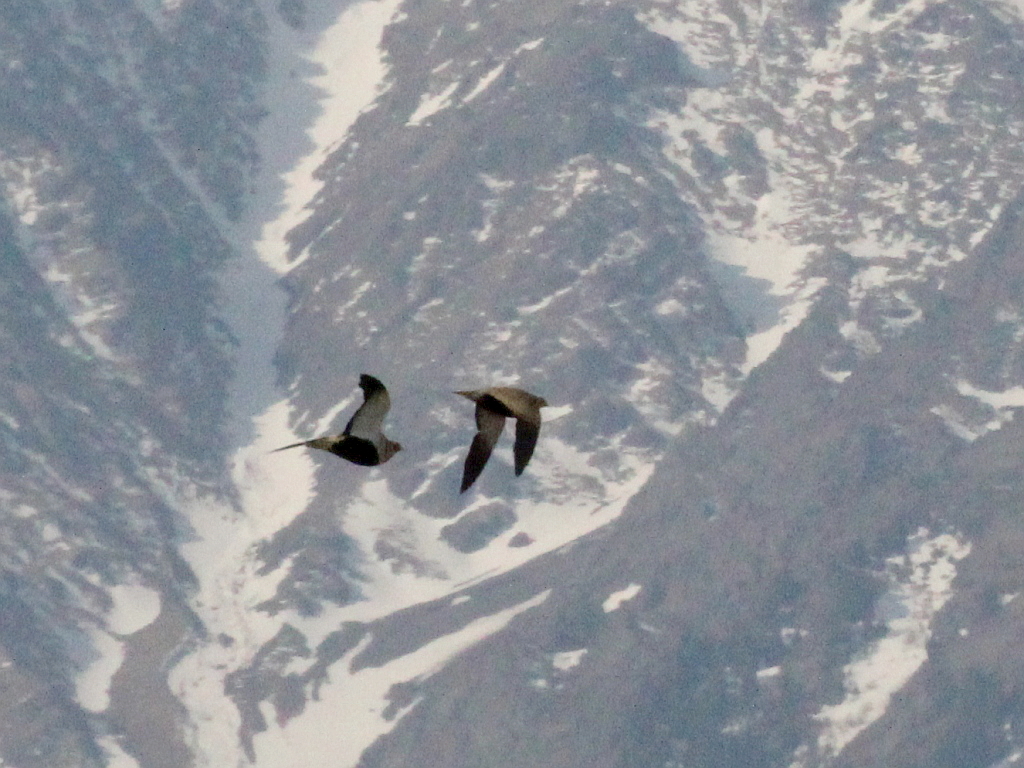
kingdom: Animalia
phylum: Chordata
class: Aves
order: Pteroclidiformes
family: Pteroclididae
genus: Pterocles
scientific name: Pterocles orientalis
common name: Black-bellied sandgrouse
